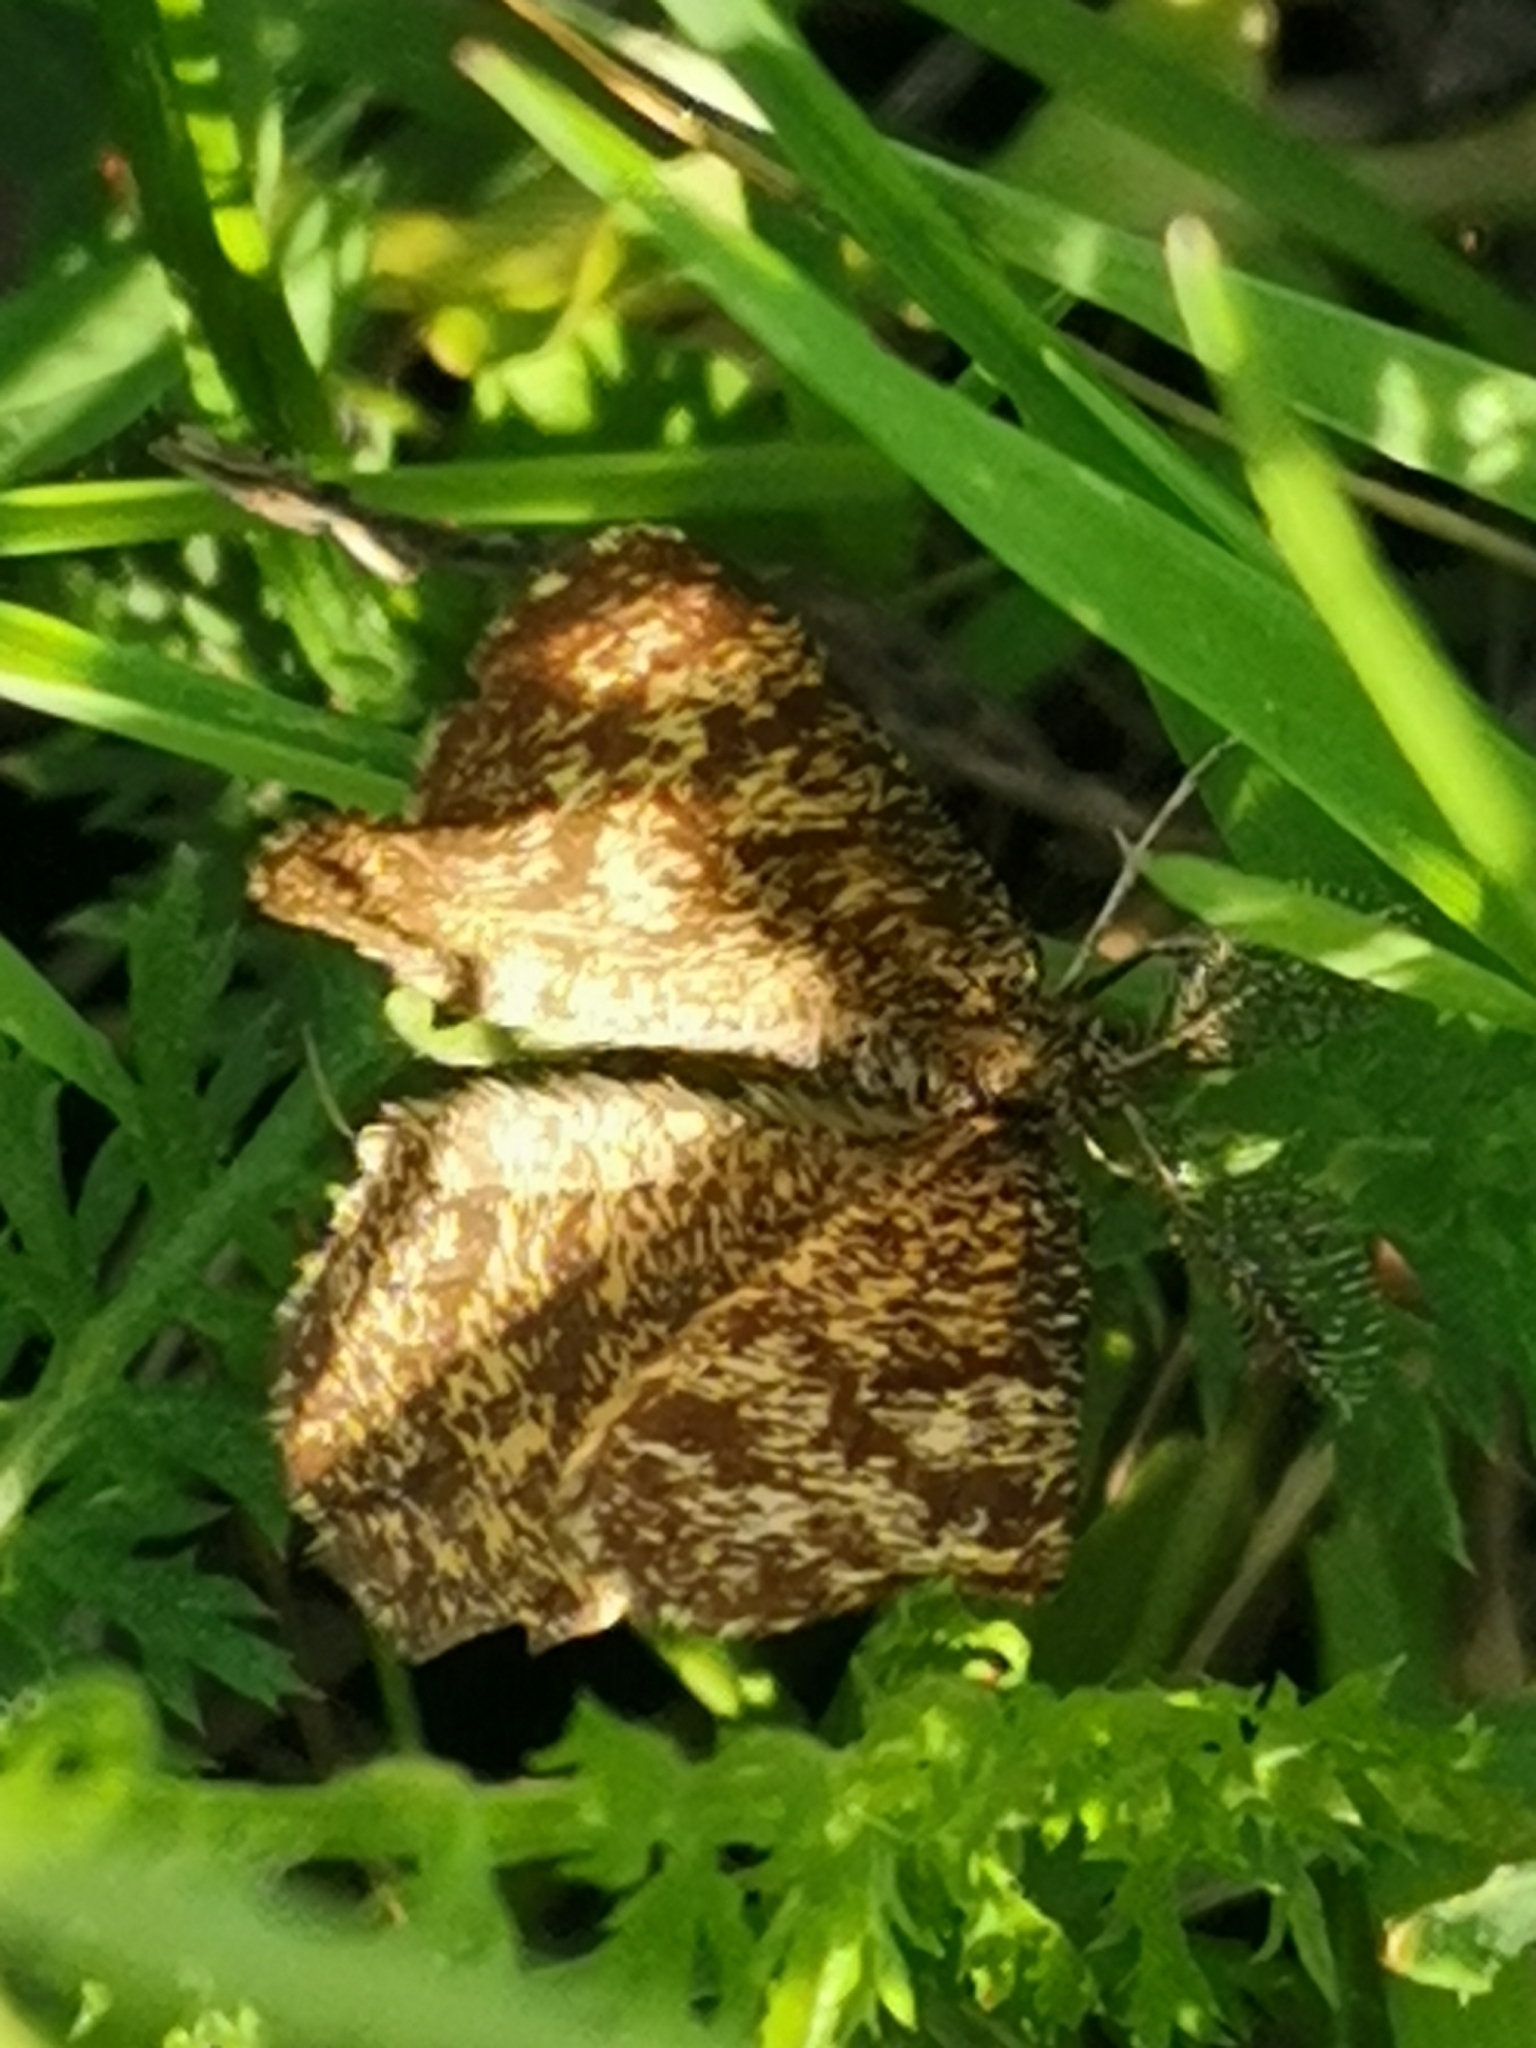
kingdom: Animalia
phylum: Arthropoda
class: Insecta
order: Lepidoptera
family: Geometridae
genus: Ematurga
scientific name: Ematurga atomaria
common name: Common heath
